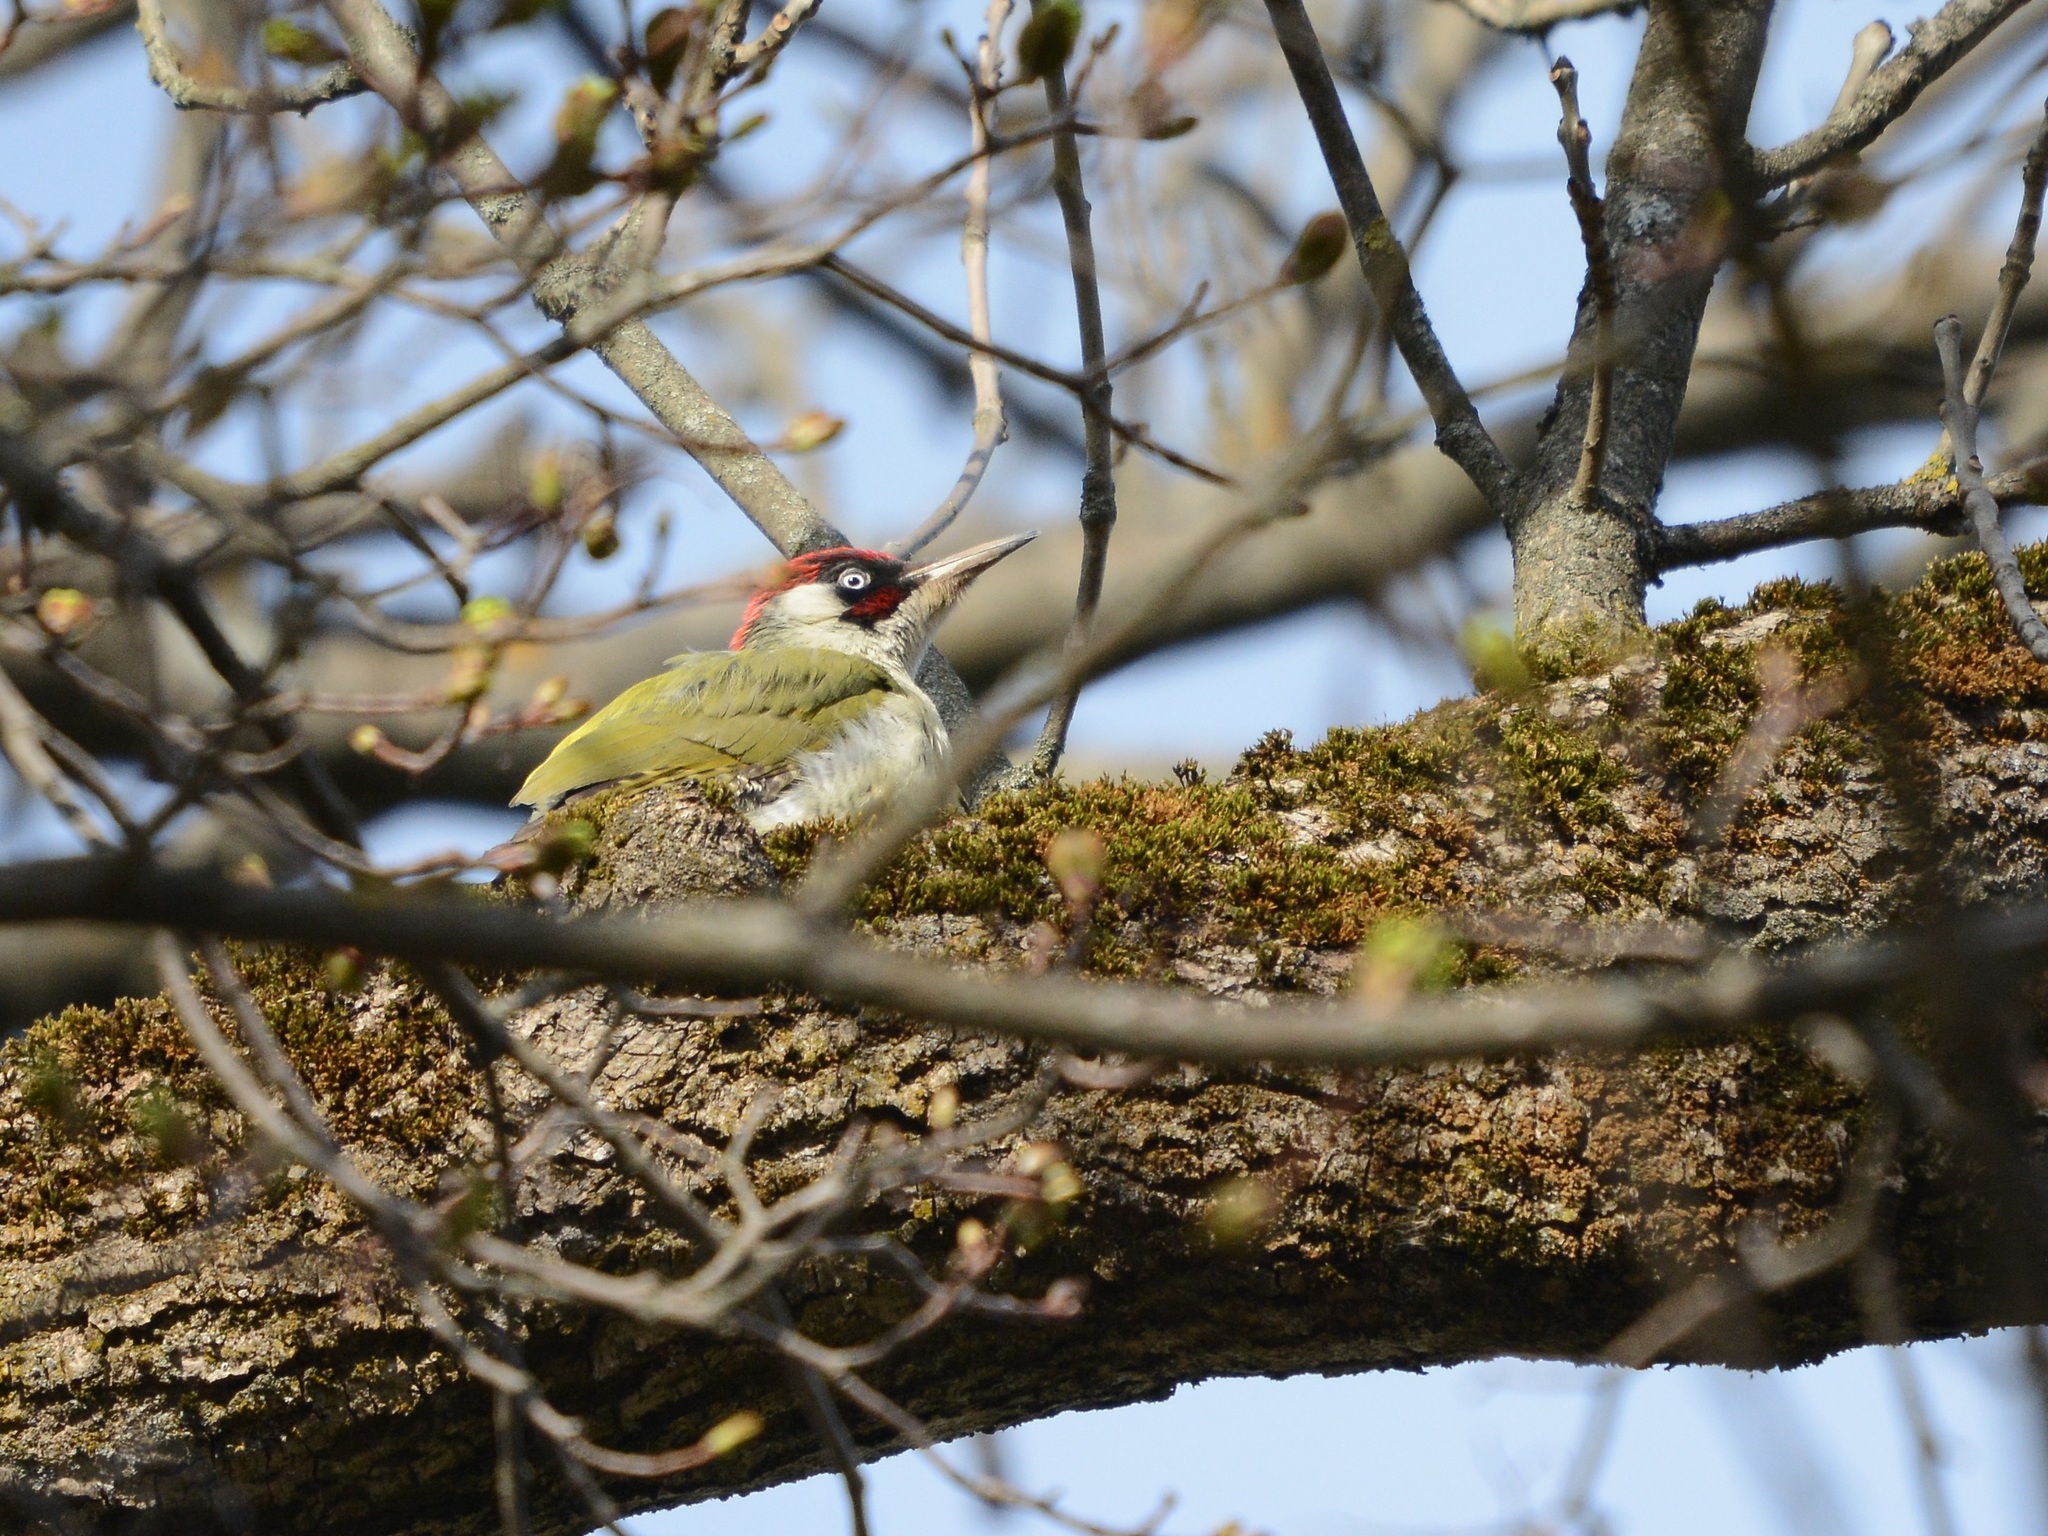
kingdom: Animalia
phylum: Chordata
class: Aves
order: Piciformes
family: Picidae
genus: Picus
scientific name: Picus viridis
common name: European green woodpecker
